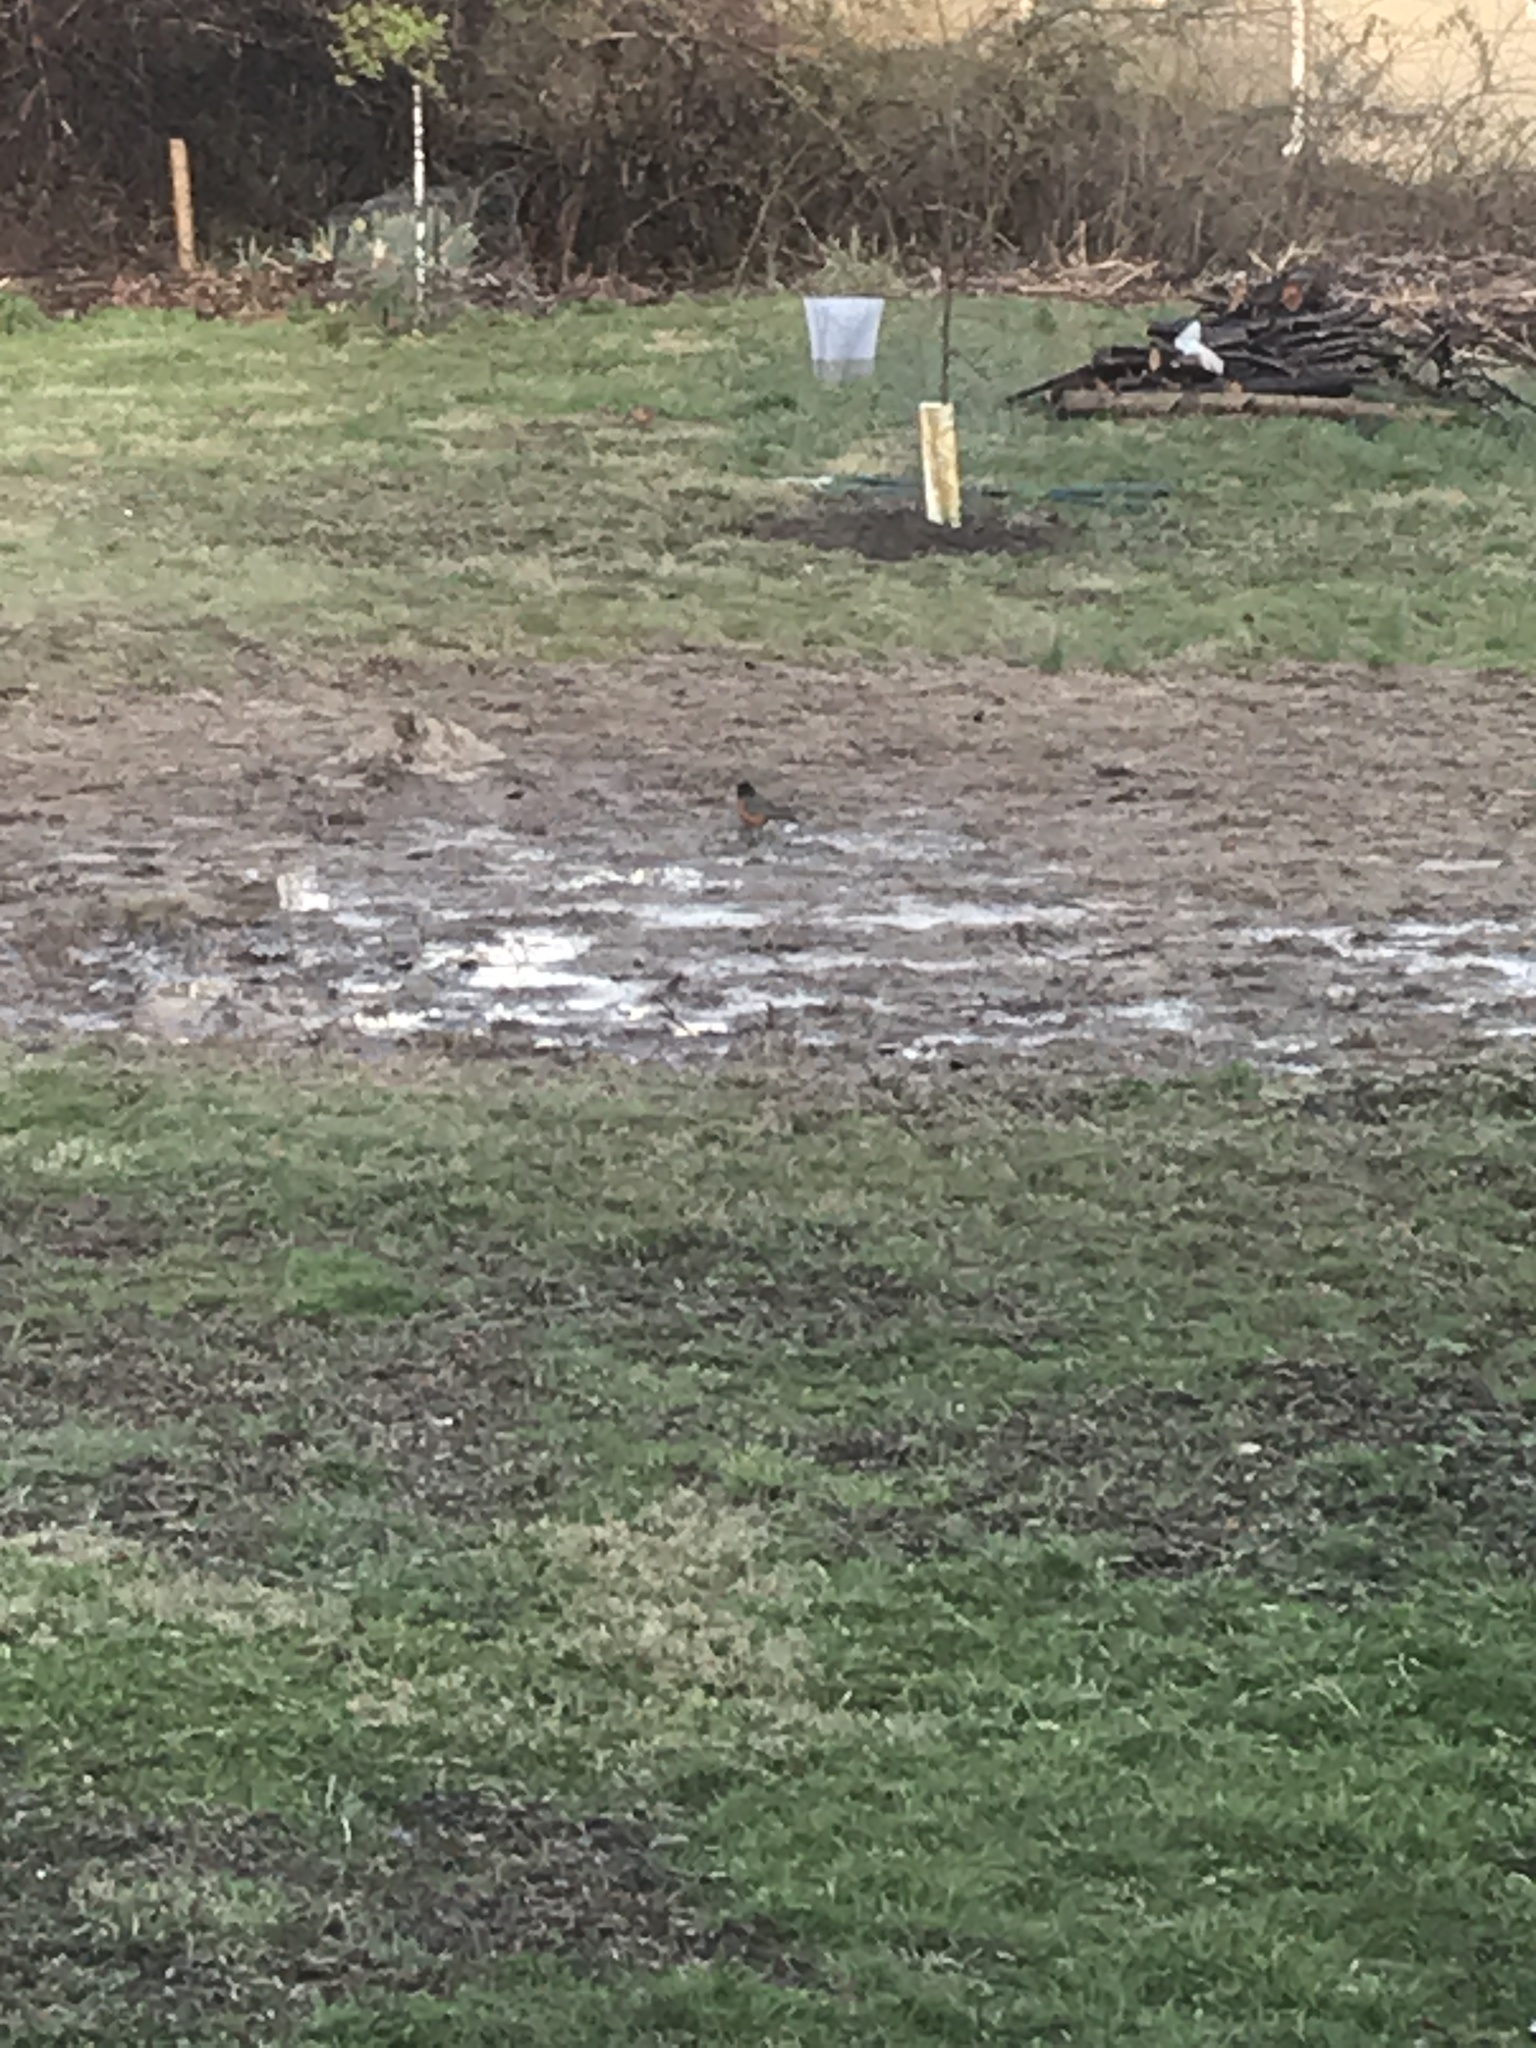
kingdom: Animalia
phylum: Chordata
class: Aves
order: Passeriformes
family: Turdidae
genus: Turdus
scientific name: Turdus migratorius
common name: American robin
